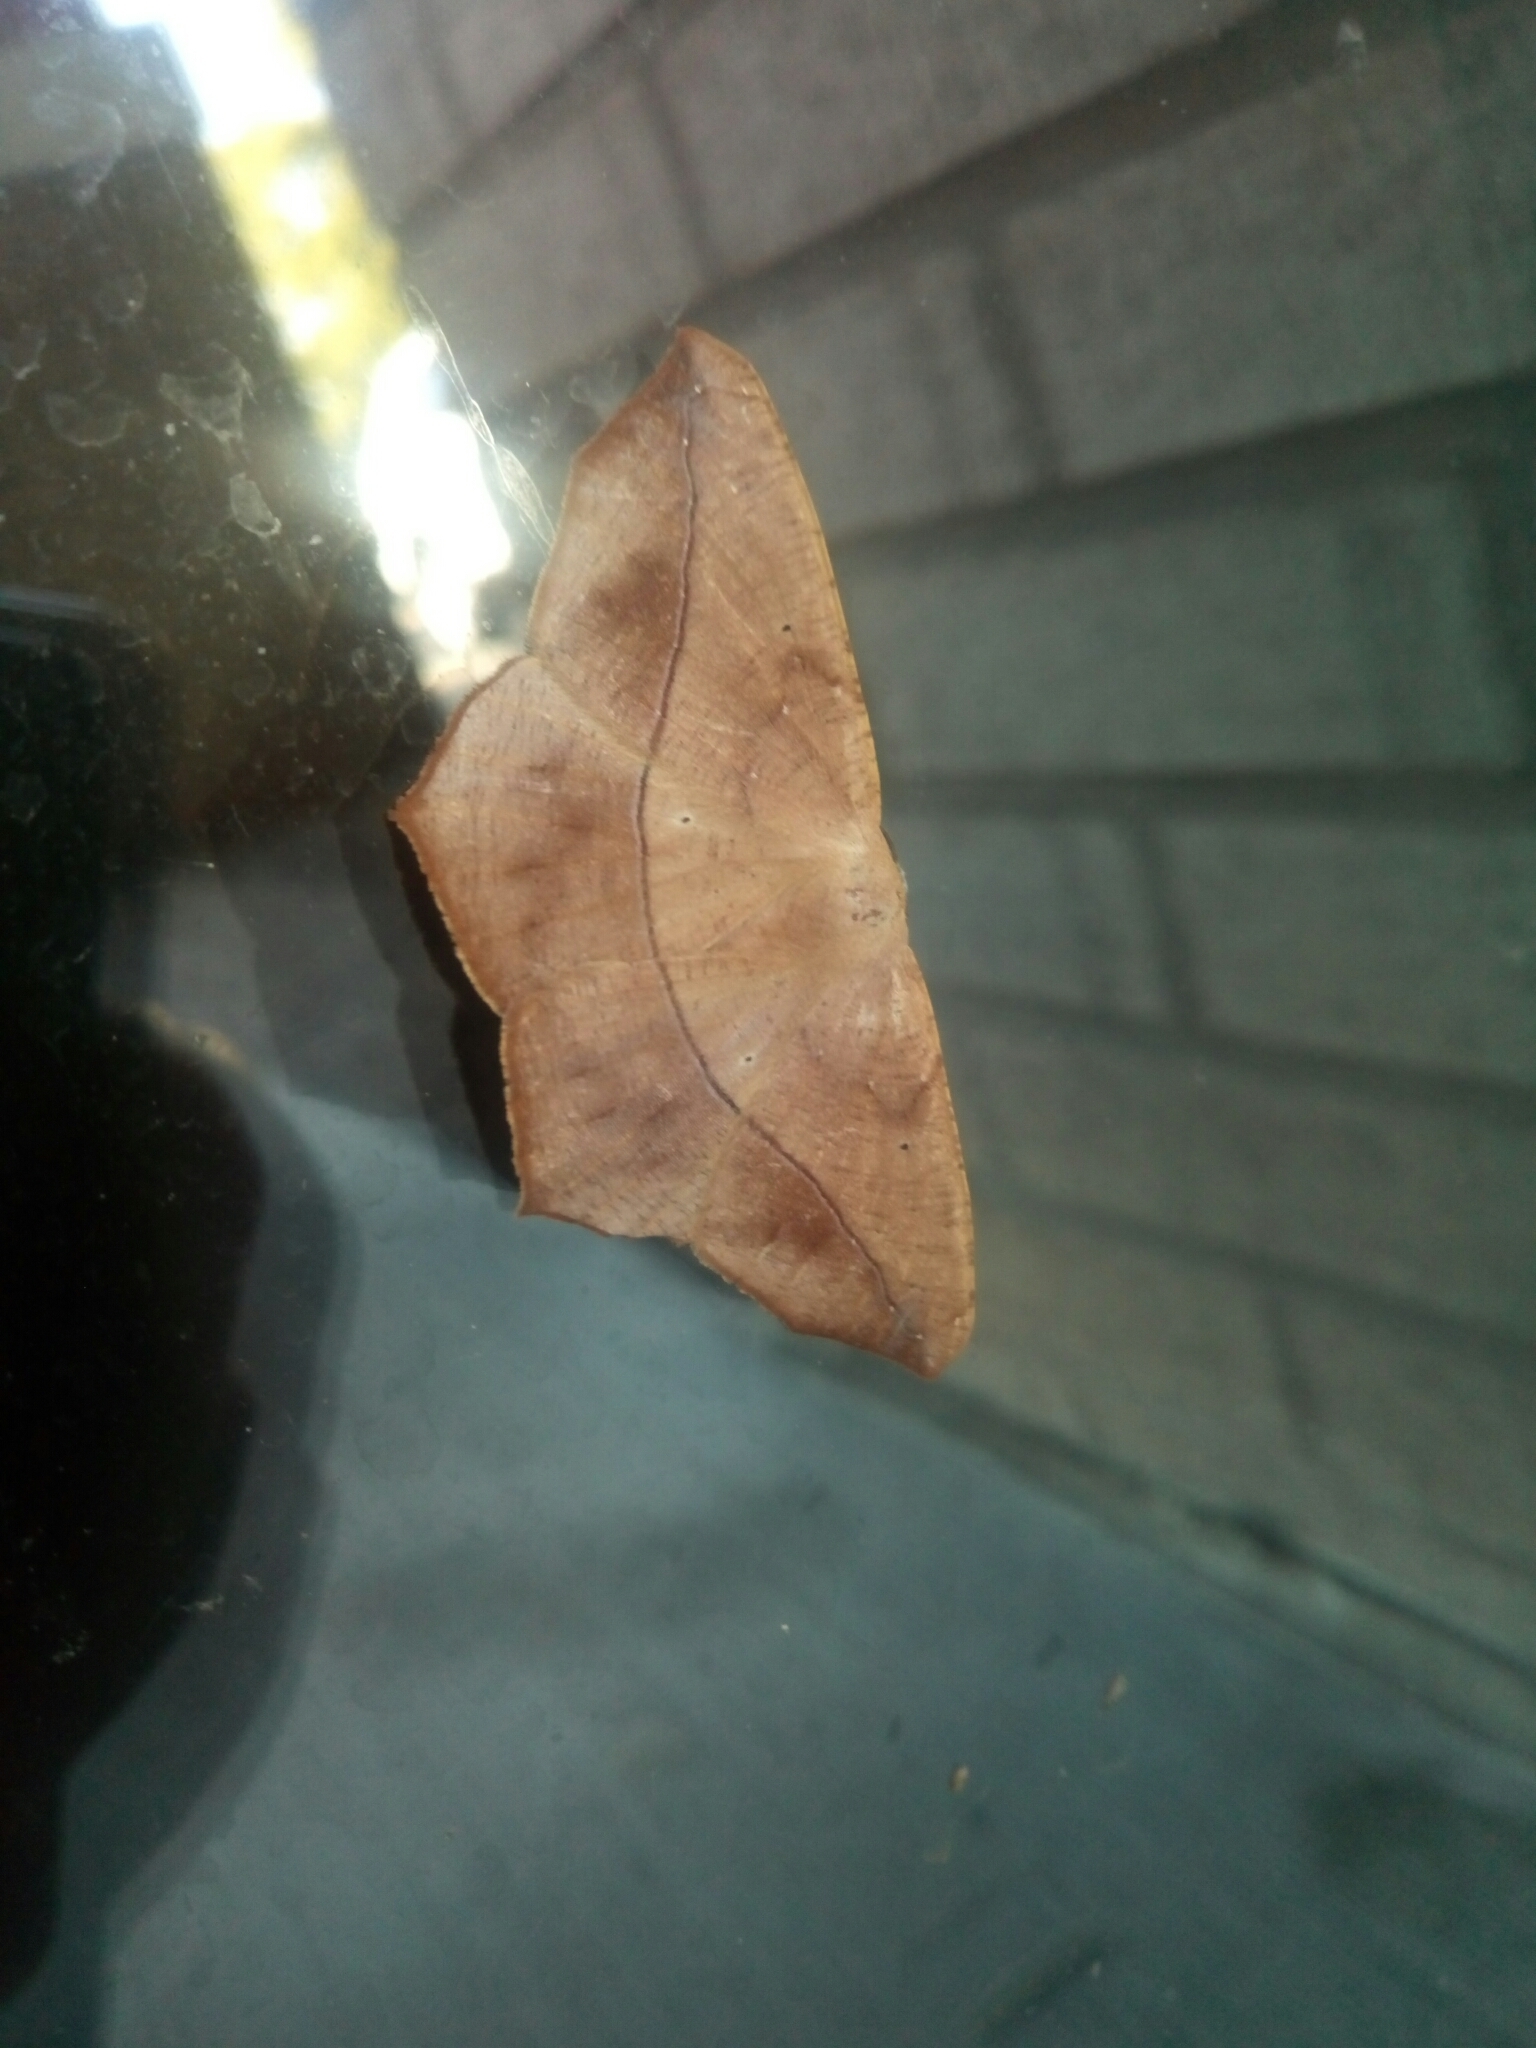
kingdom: Animalia
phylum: Arthropoda
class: Insecta
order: Lepidoptera
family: Geometridae
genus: Prochoerodes
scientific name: Prochoerodes lineola
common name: Large maple spanworm
